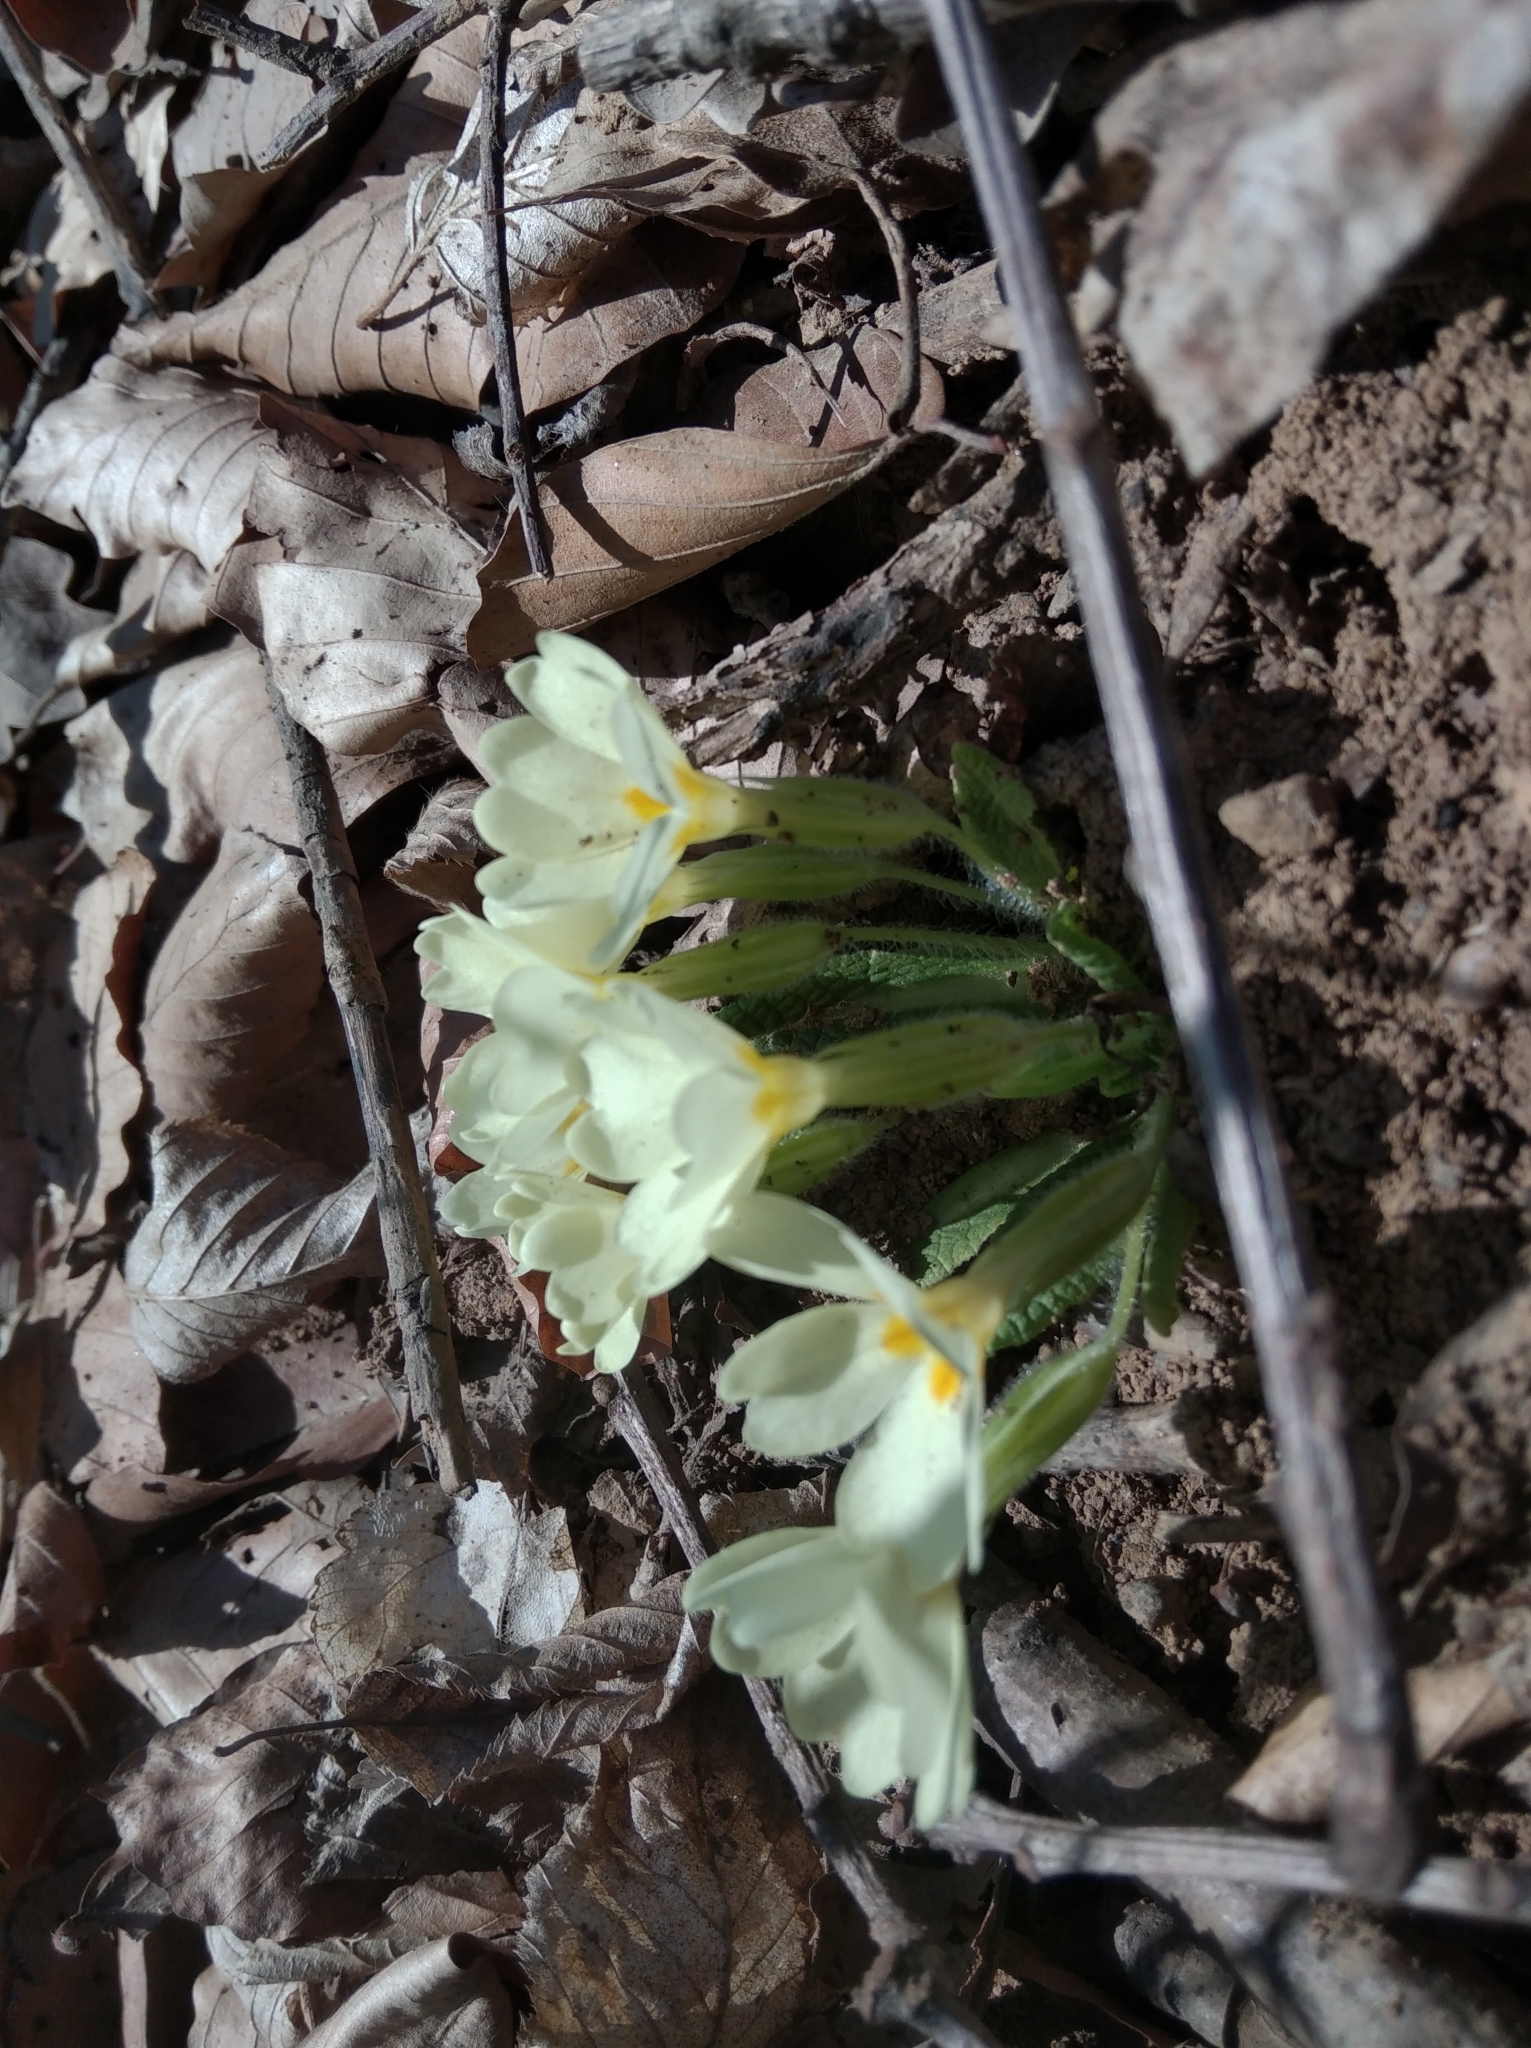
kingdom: Plantae
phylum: Tracheophyta
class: Magnoliopsida
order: Ericales
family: Primulaceae
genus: Primula
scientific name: Primula vulgaris
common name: Primrose
